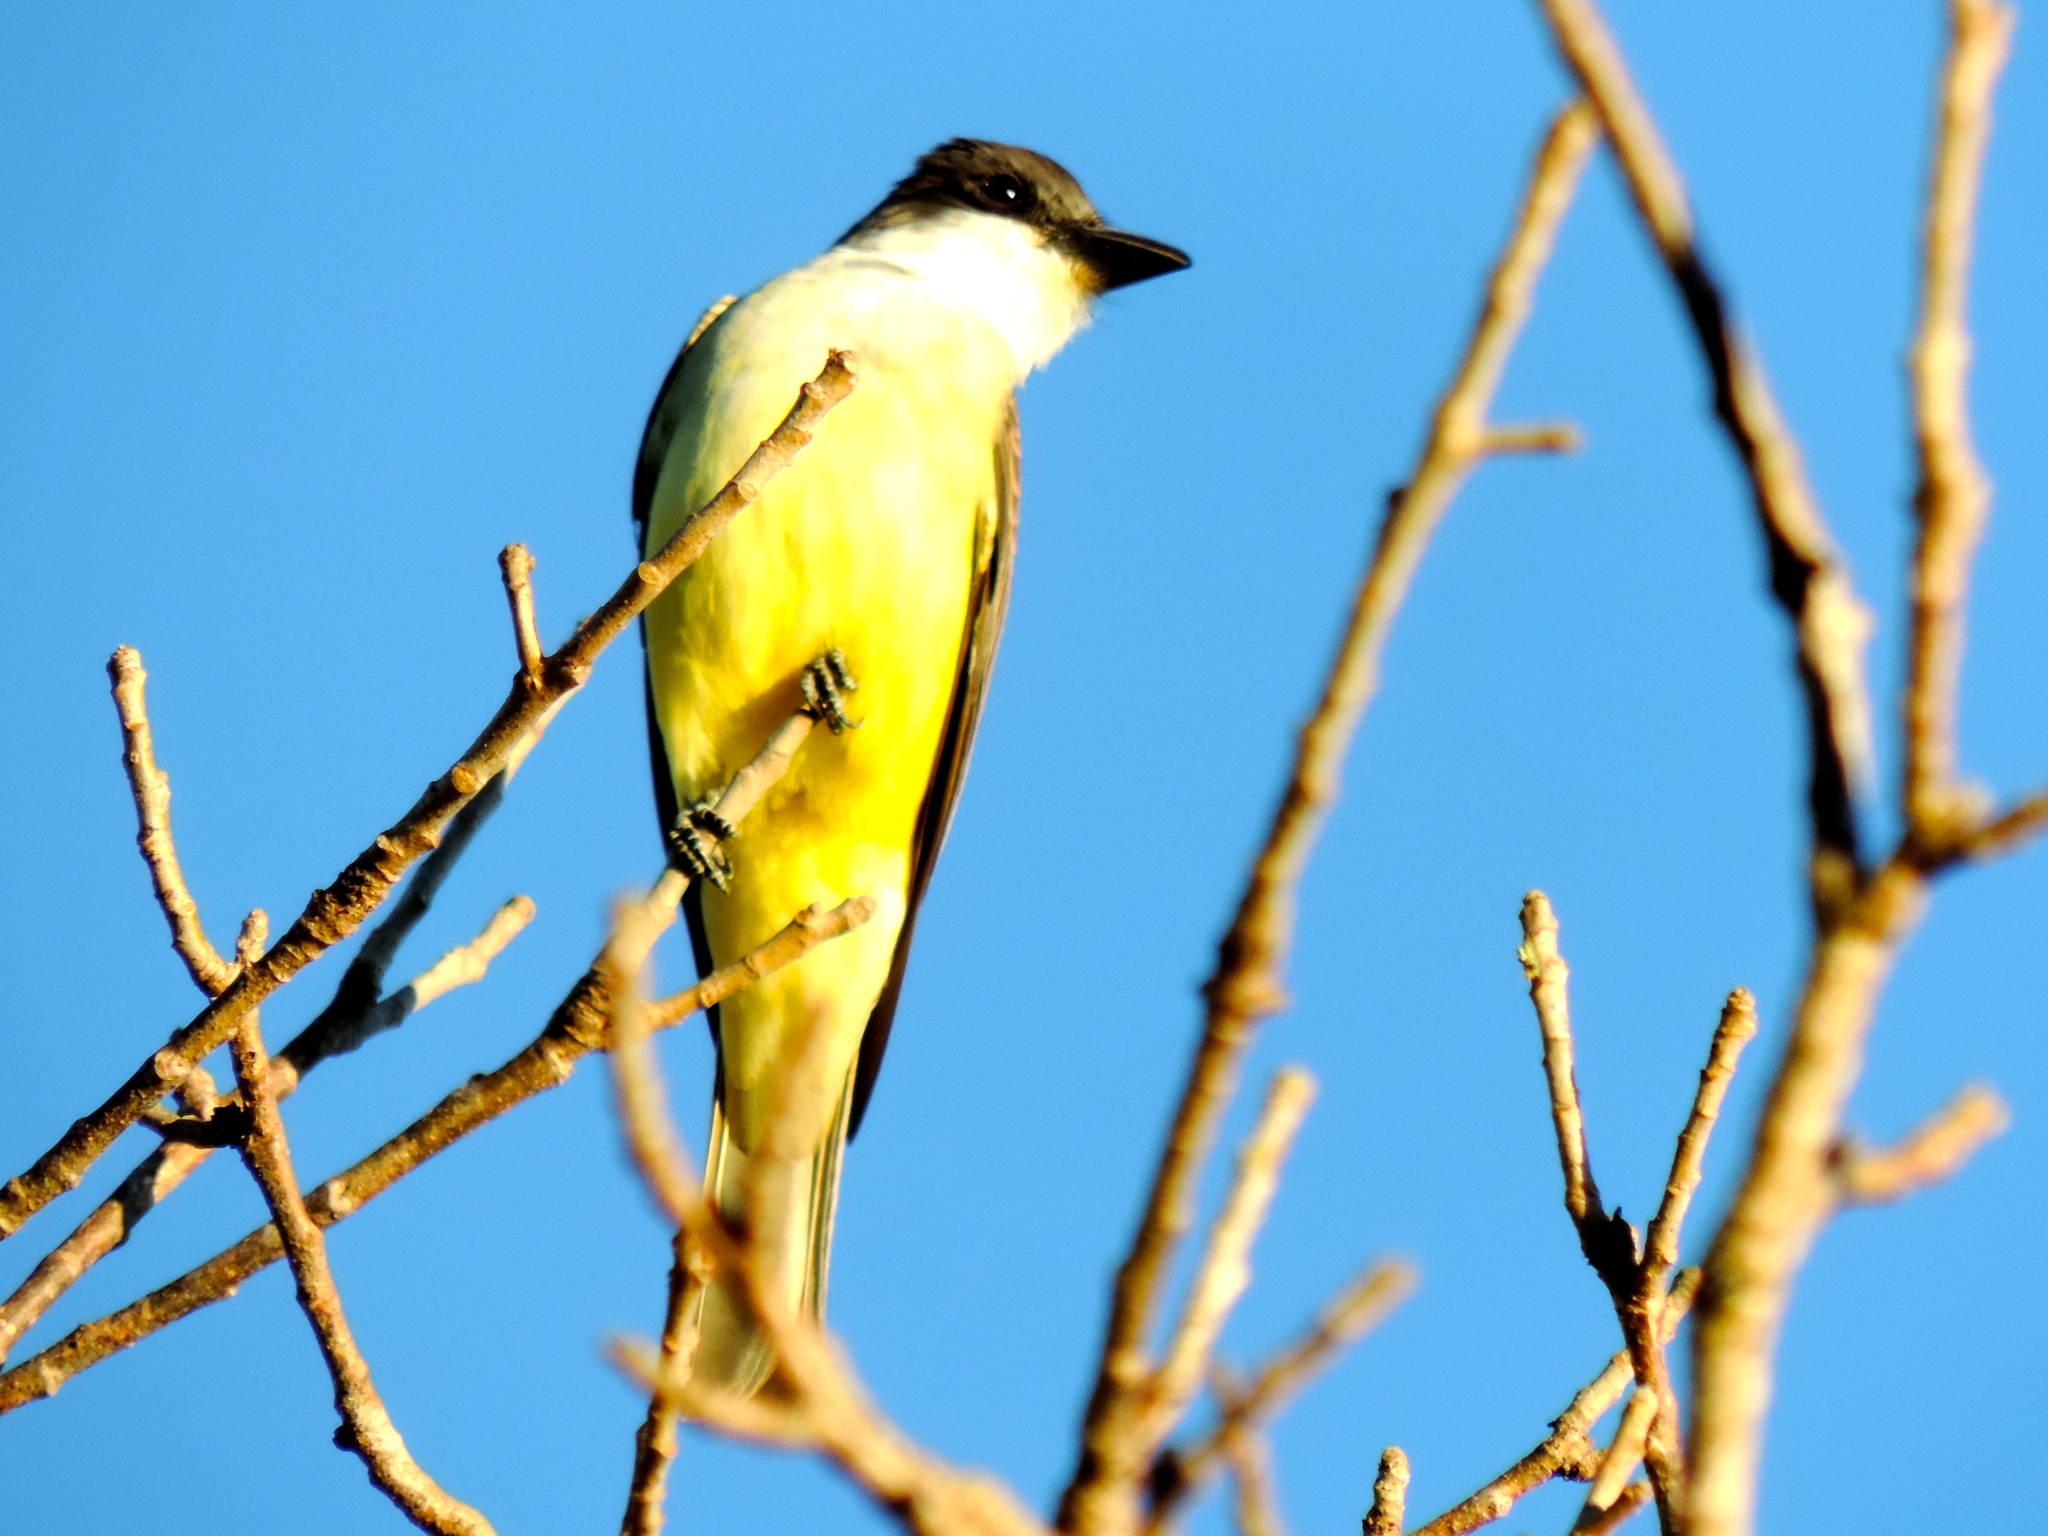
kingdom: Animalia
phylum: Chordata
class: Aves
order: Passeriformes
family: Tyrannidae
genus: Tyrannus
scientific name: Tyrannus crassirostris
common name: Thick-billed kingbird
